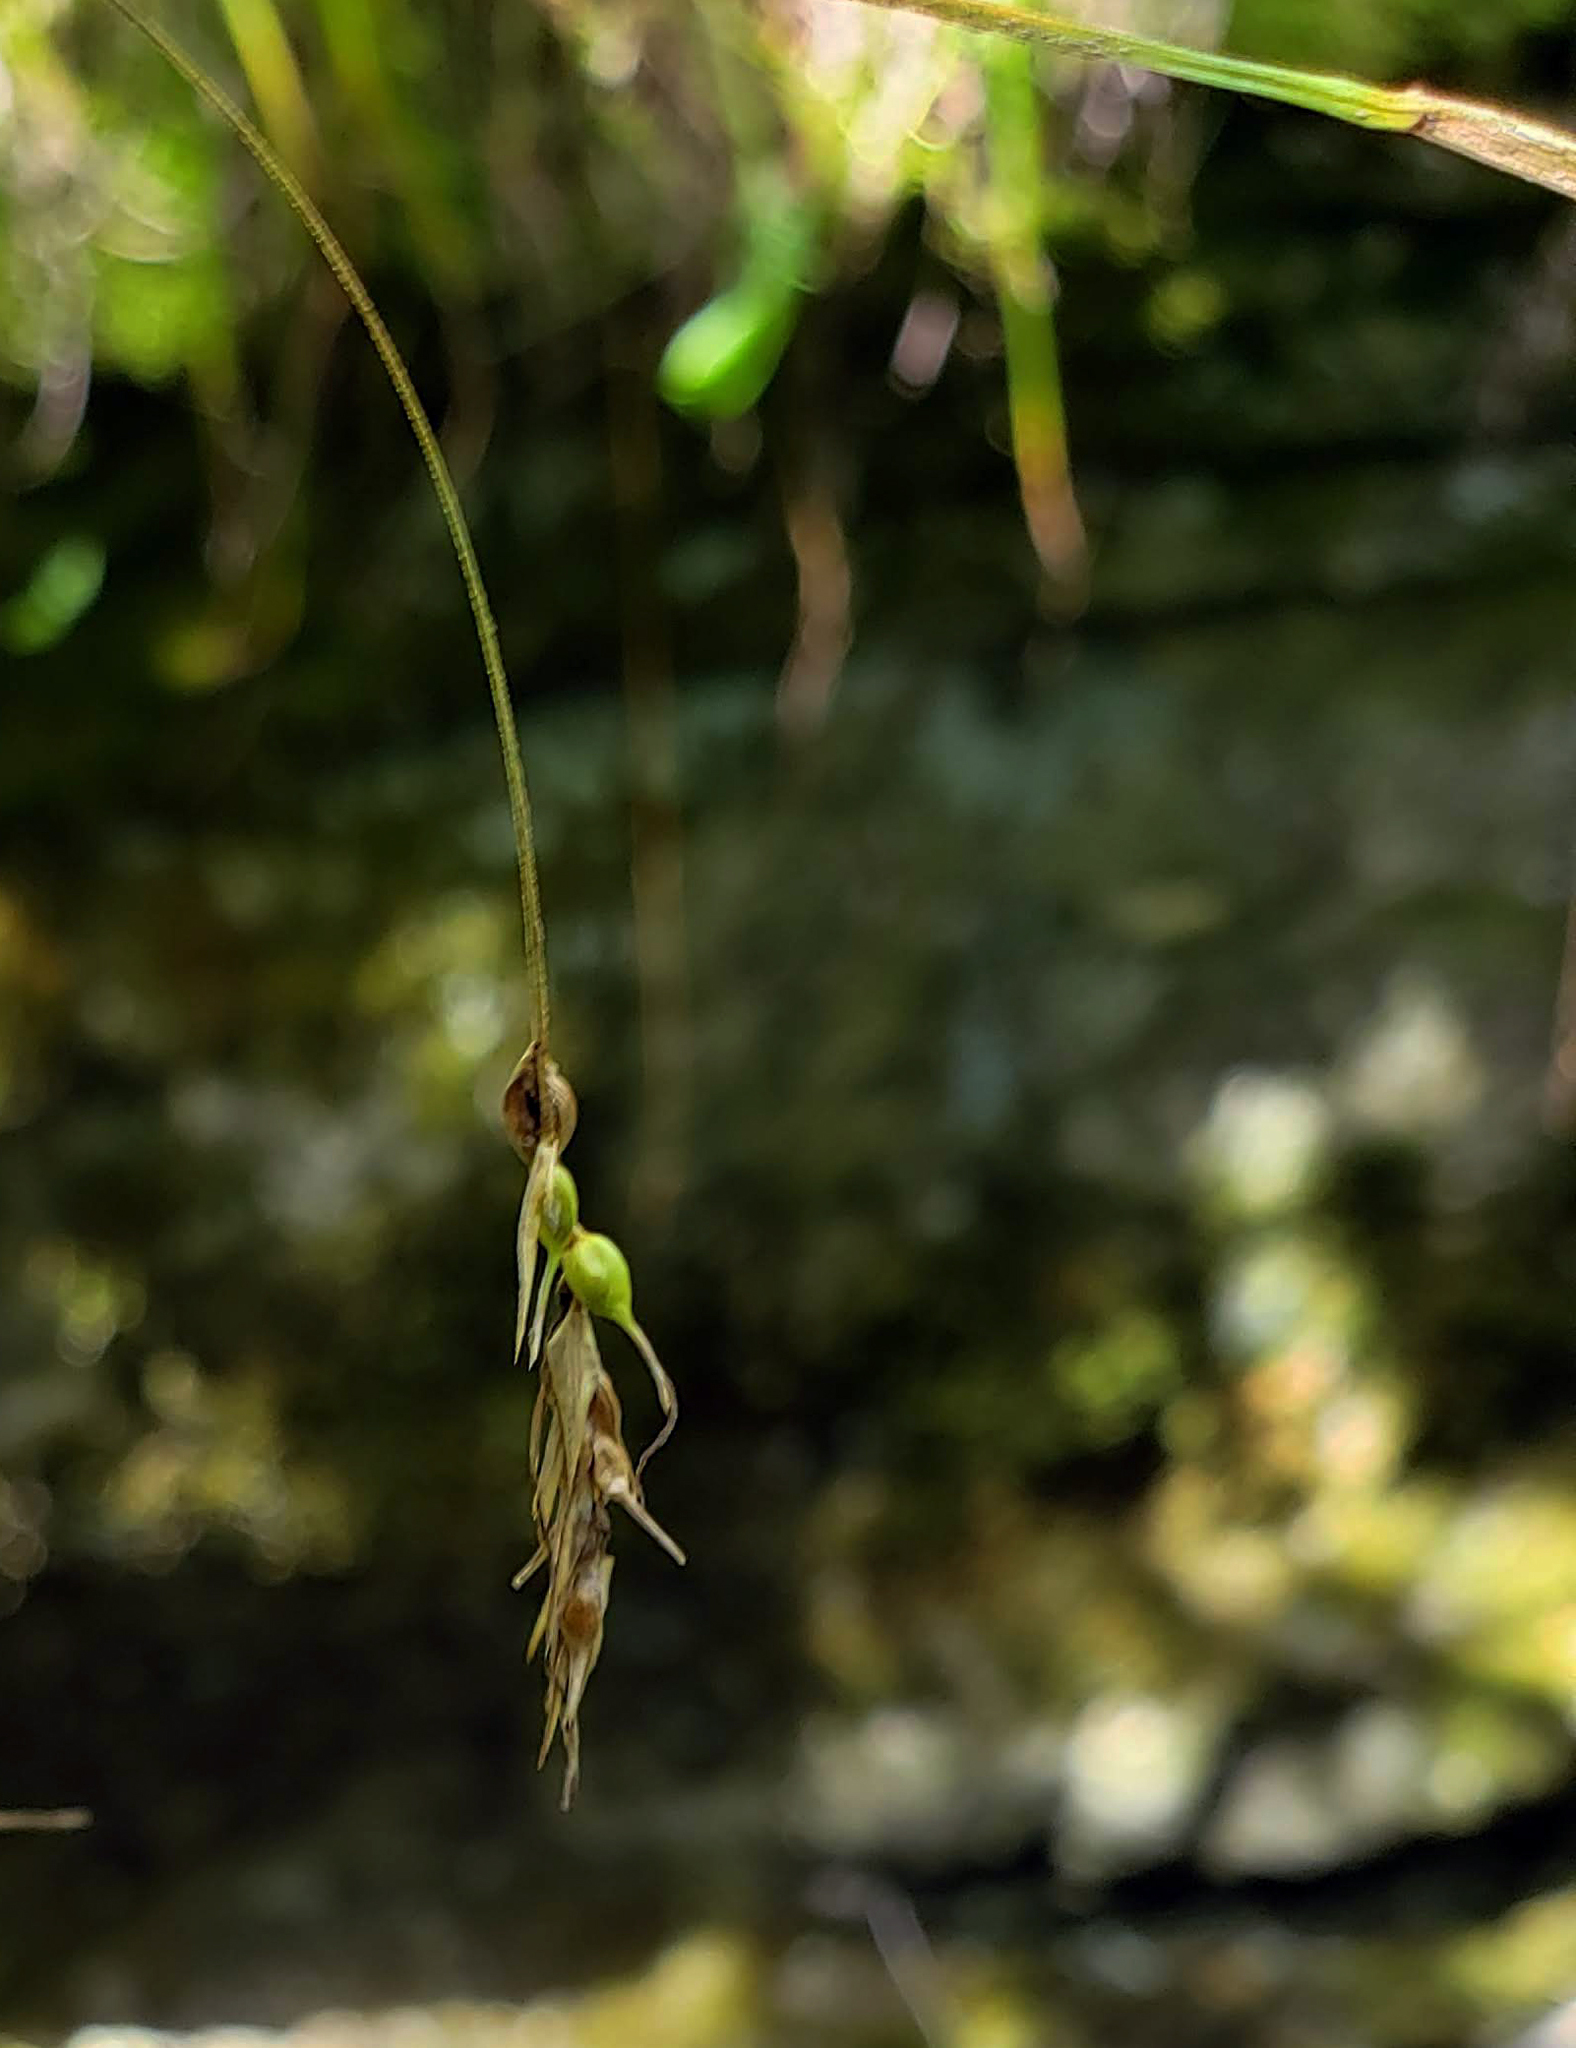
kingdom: Plantae
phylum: Tracheophyta
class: Liliopsida
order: Poales
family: Cyperaceae
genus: Carex
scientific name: Carex sprengelii
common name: Long-beaked sedge
